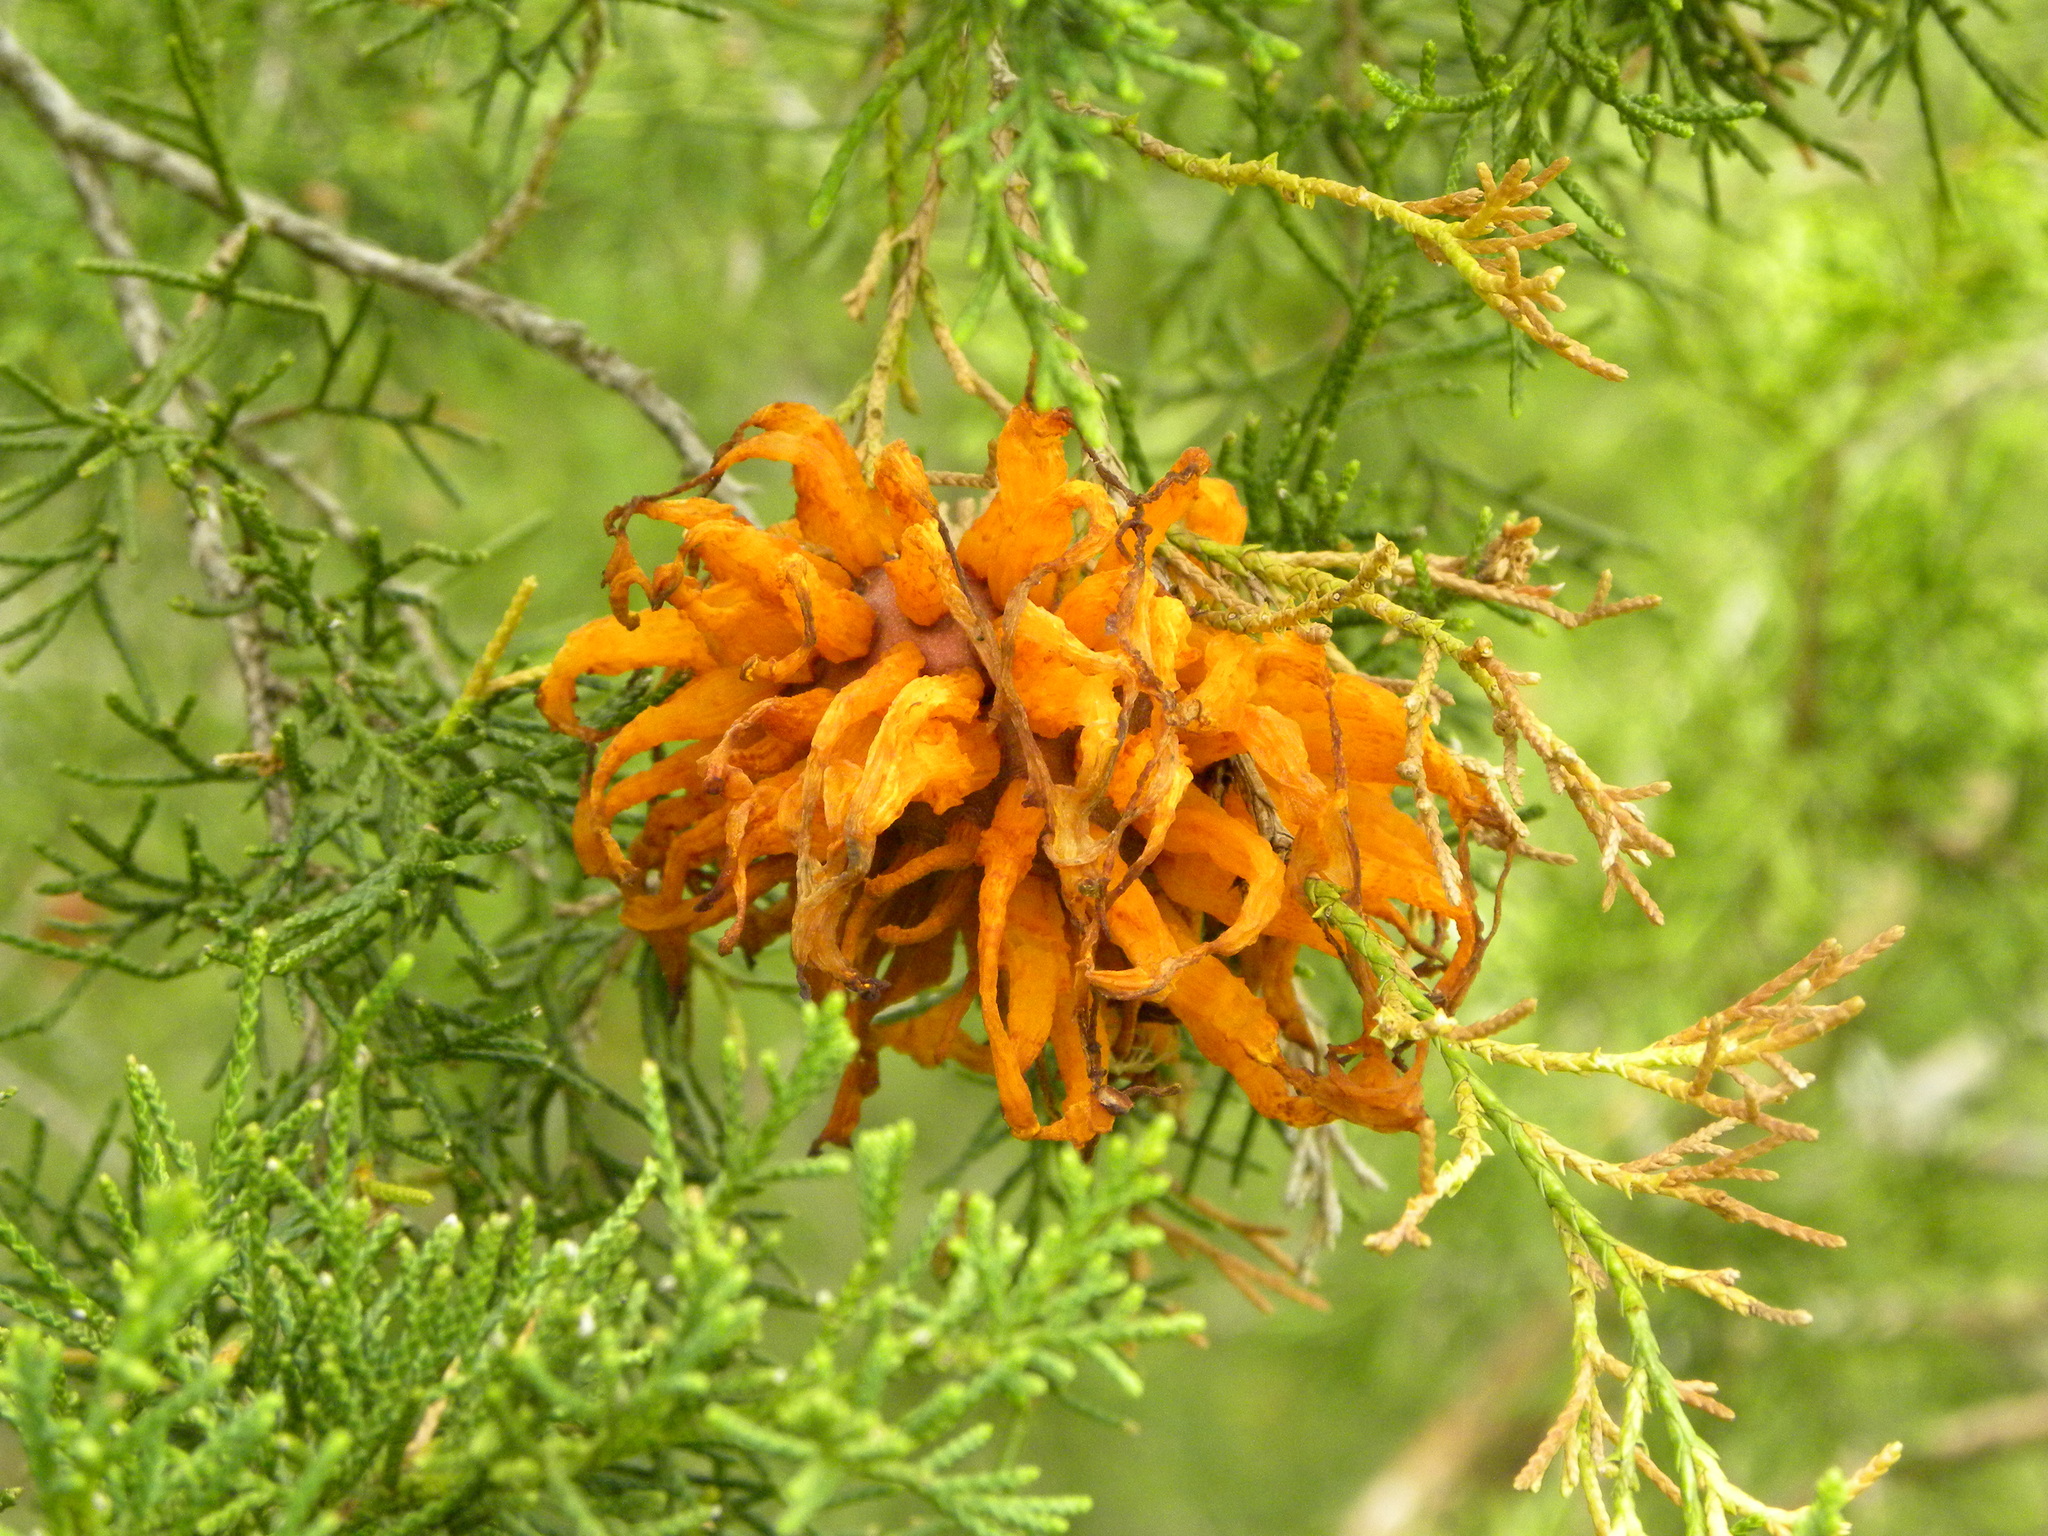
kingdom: Fungi
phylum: Basidiomycota
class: Pucciniomycetes
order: Pucciniales
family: Gymnosporangiaceae
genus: Gymnosporangium
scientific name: Gymnosporangium juniperi-virginianae
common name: Juniper-apple rust
